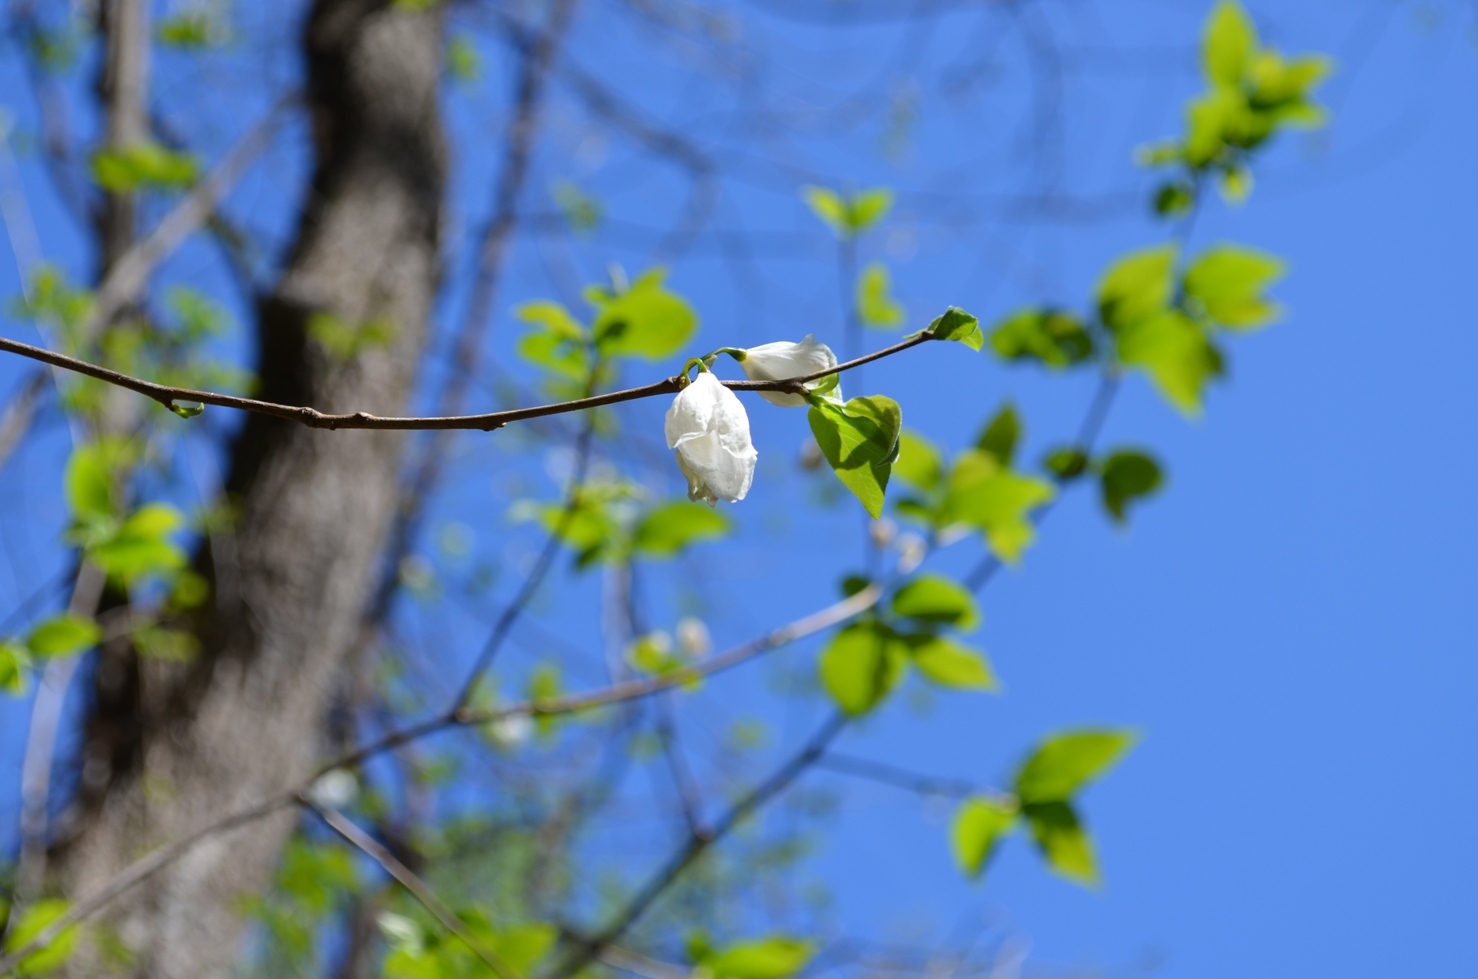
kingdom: Plantae
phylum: Tracheophyta
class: Magnoliopsida
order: Ericales
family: Styracaceae
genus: Halesia
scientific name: Halesia tetraptera
